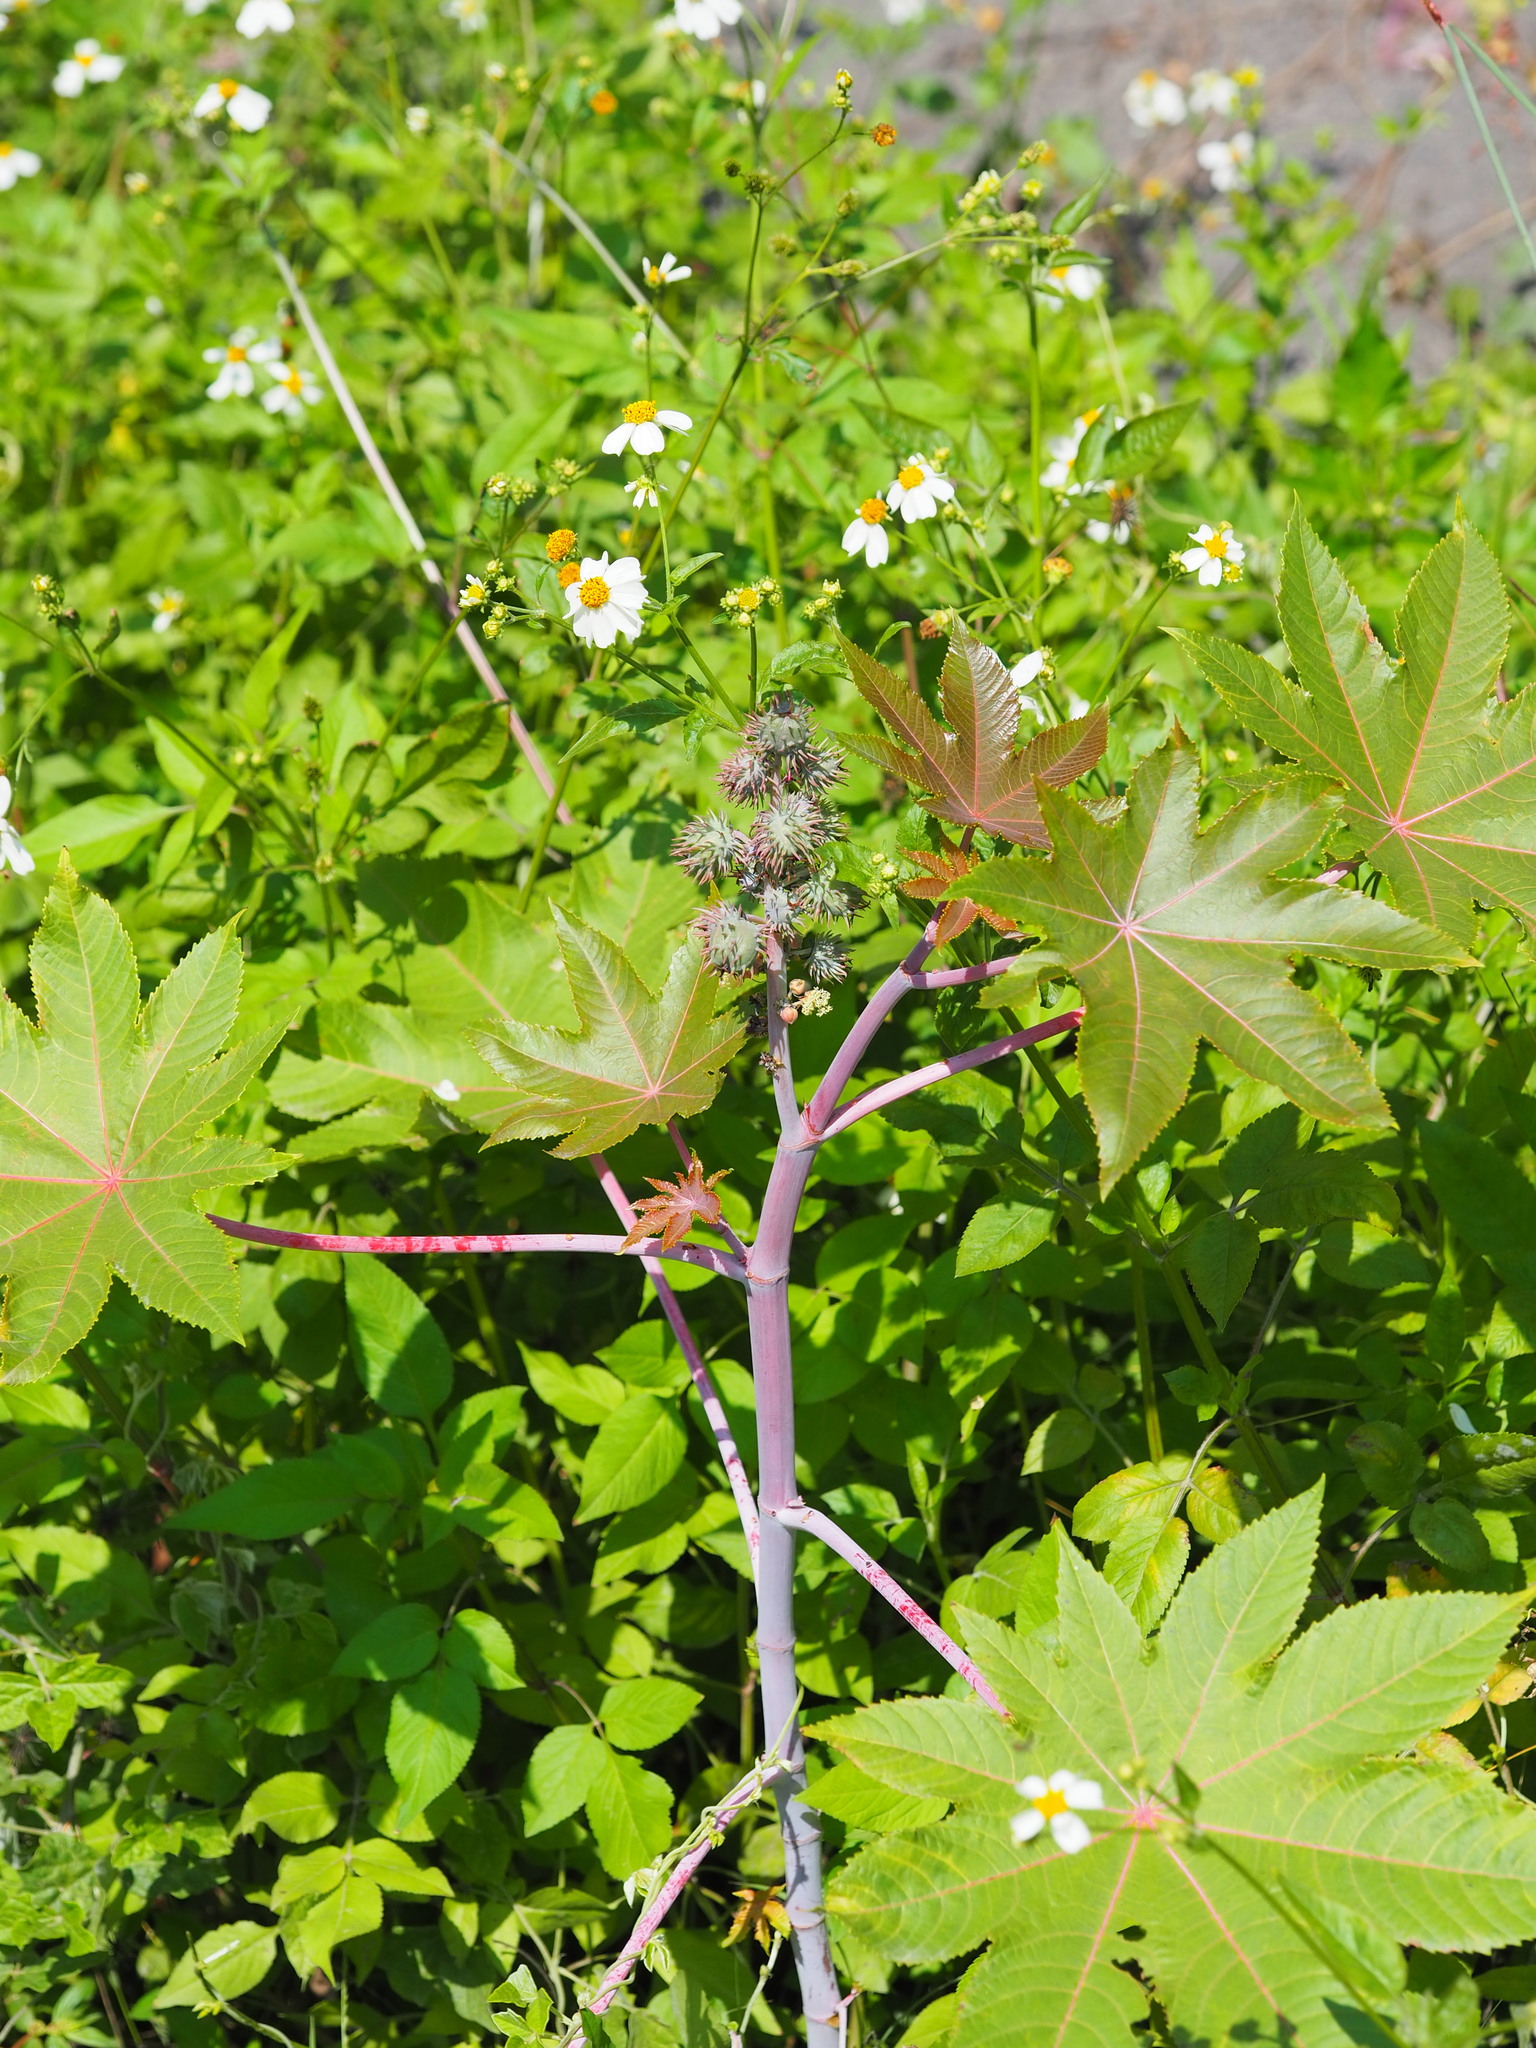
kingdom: Plantae
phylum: Tracheophyta
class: Magnoliopsida
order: Malpighiales
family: Euphorbiaceae
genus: Ricinus
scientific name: Ricinus communis
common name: Castor-oil-plant
